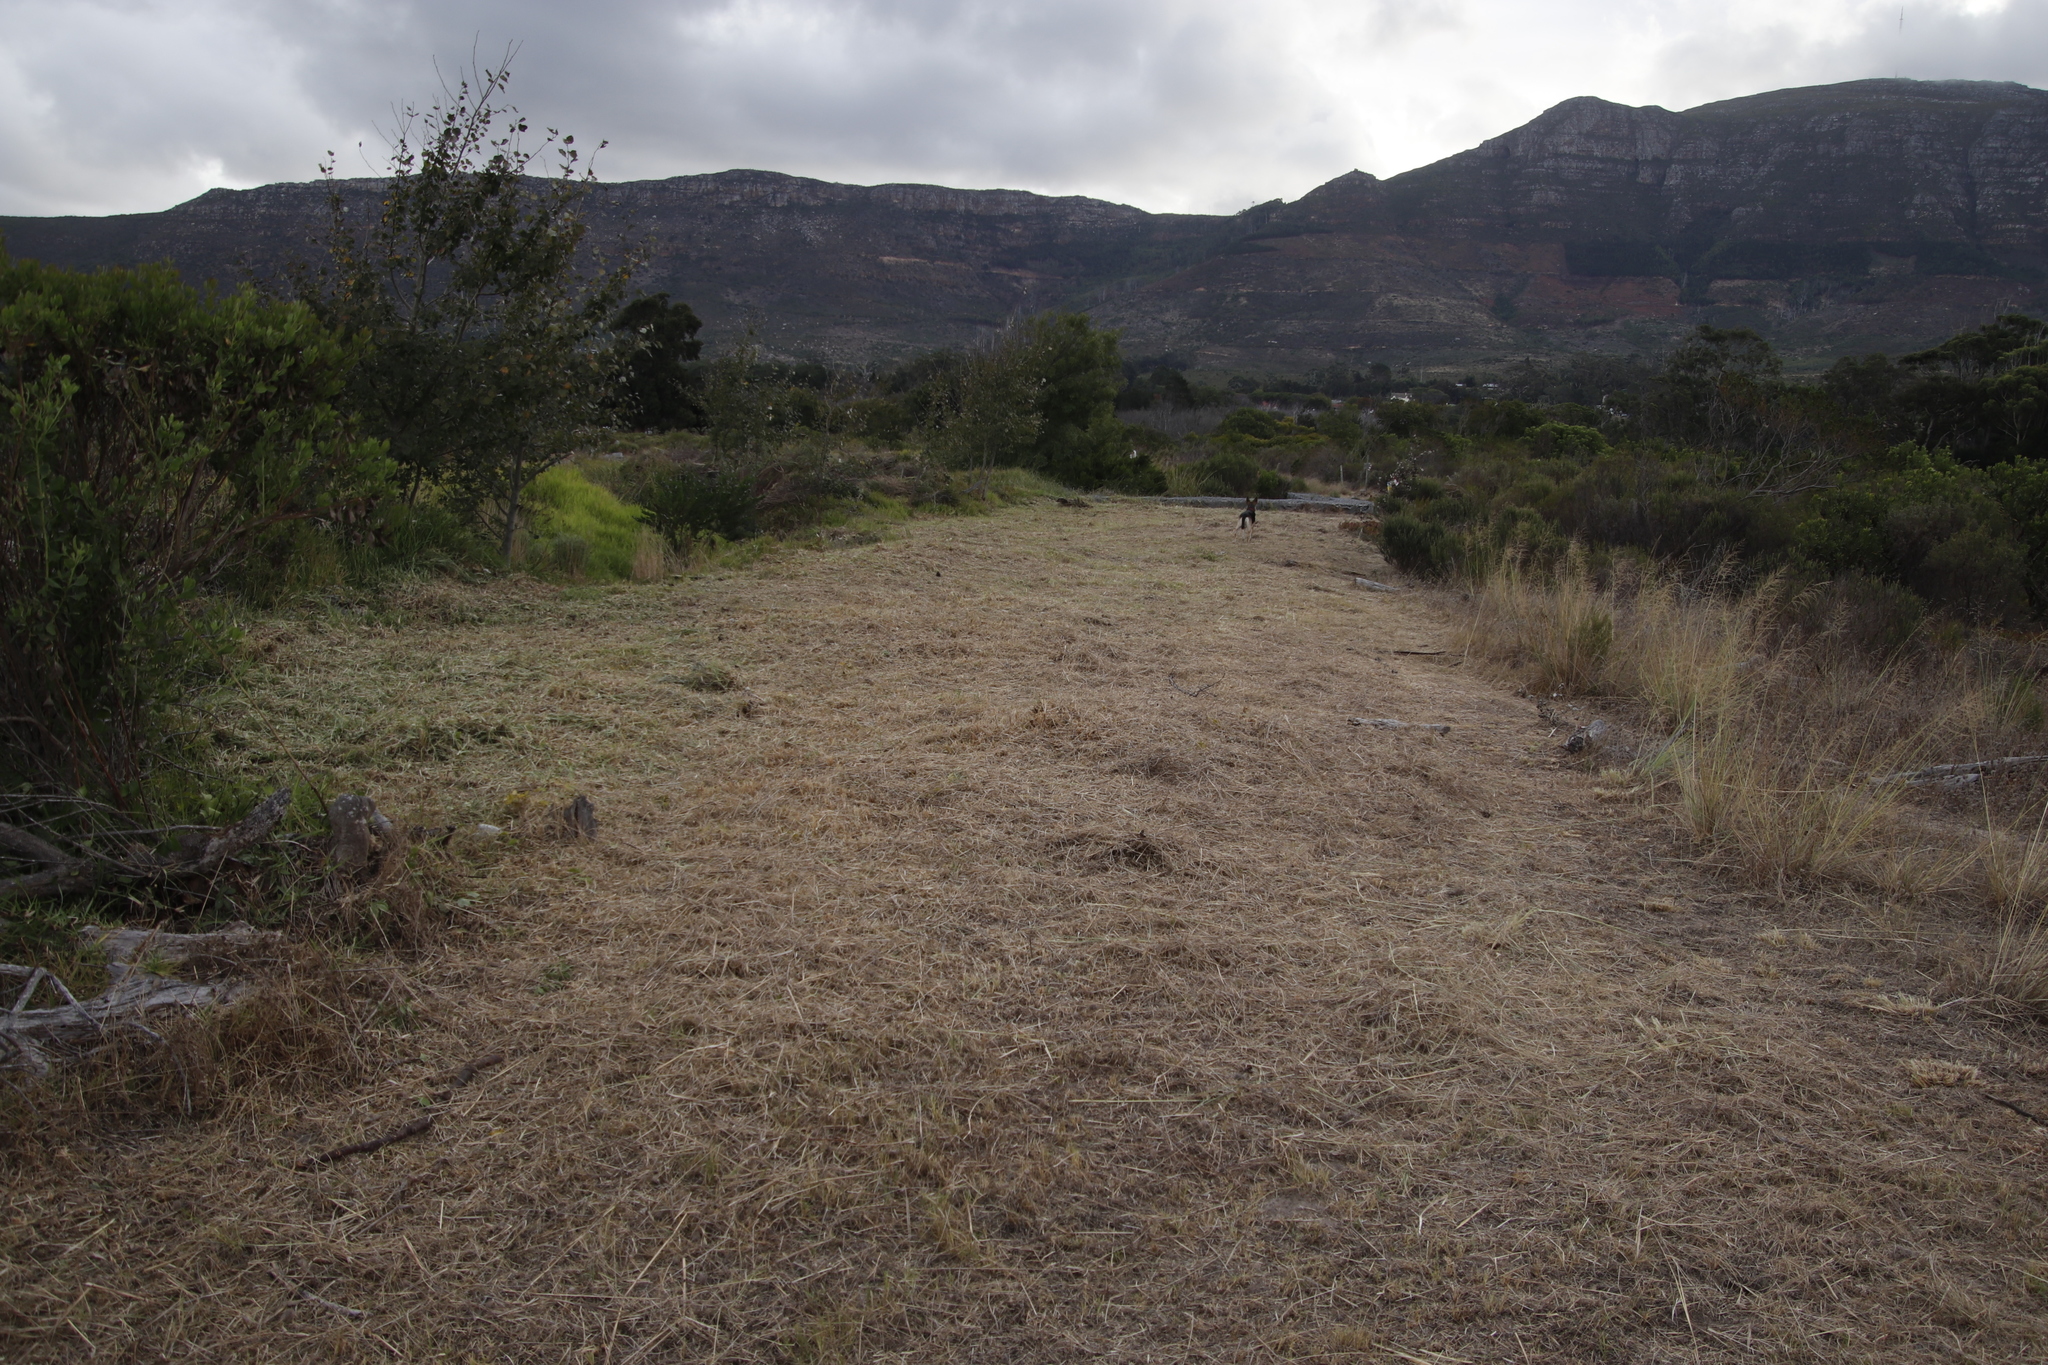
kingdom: Plantae
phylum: Tracheophyta
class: Magnoliopsida
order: Caryophyllales
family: Aizoaceae
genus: Carpobrotus
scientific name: Carpobrotus edulis
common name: Hottentot-fig
